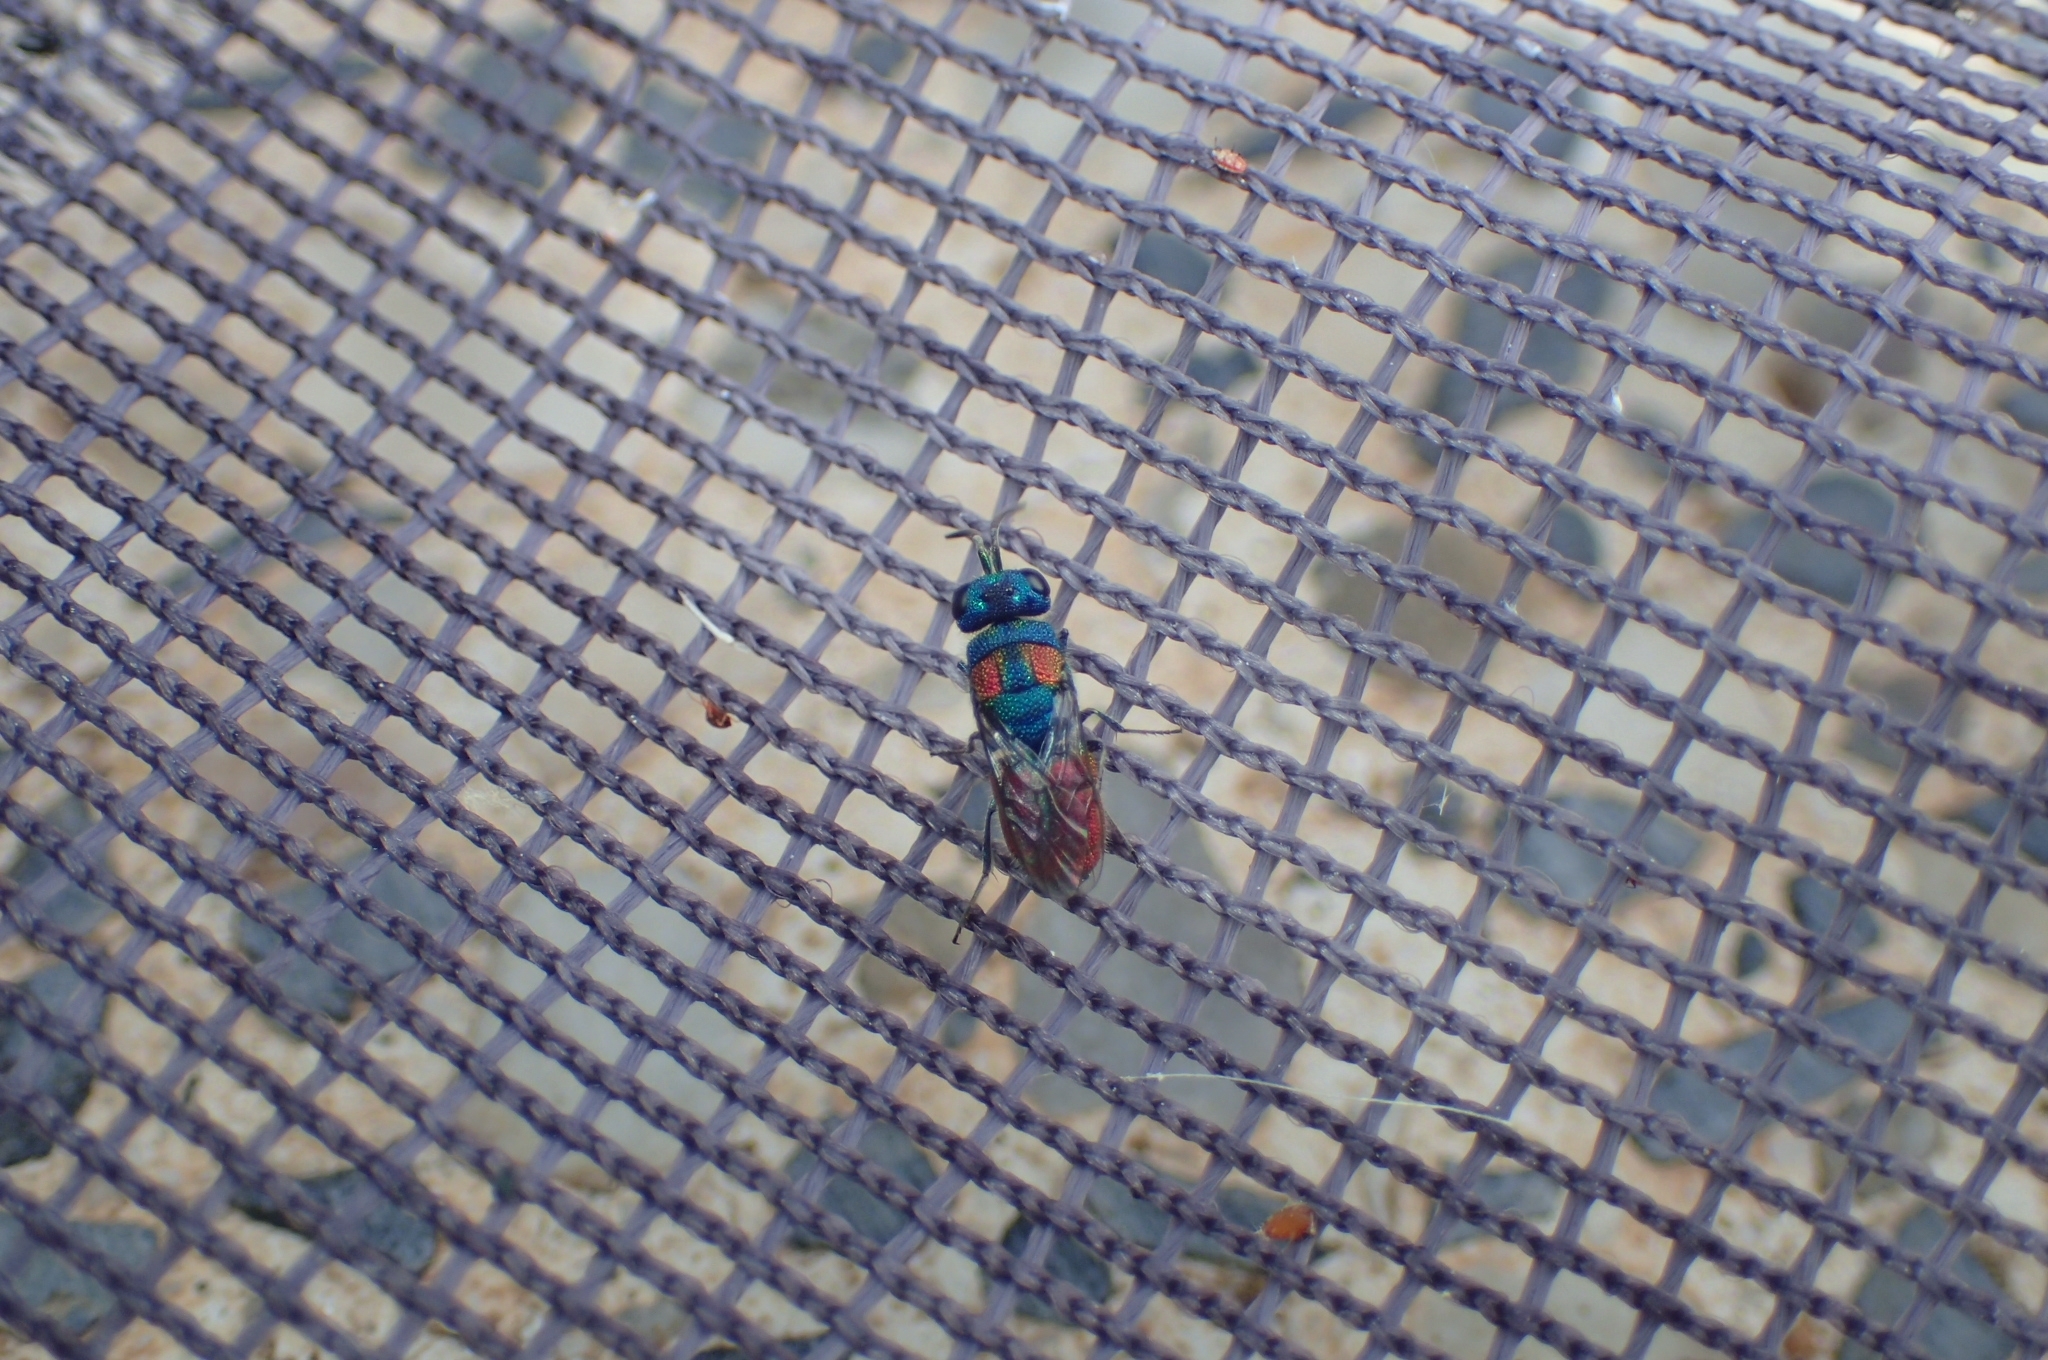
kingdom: Animalia
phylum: Arthropoda
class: Insecta
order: Hymenoptera
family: Chrysididae
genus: Chrysis
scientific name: Chrysis grohmanni
